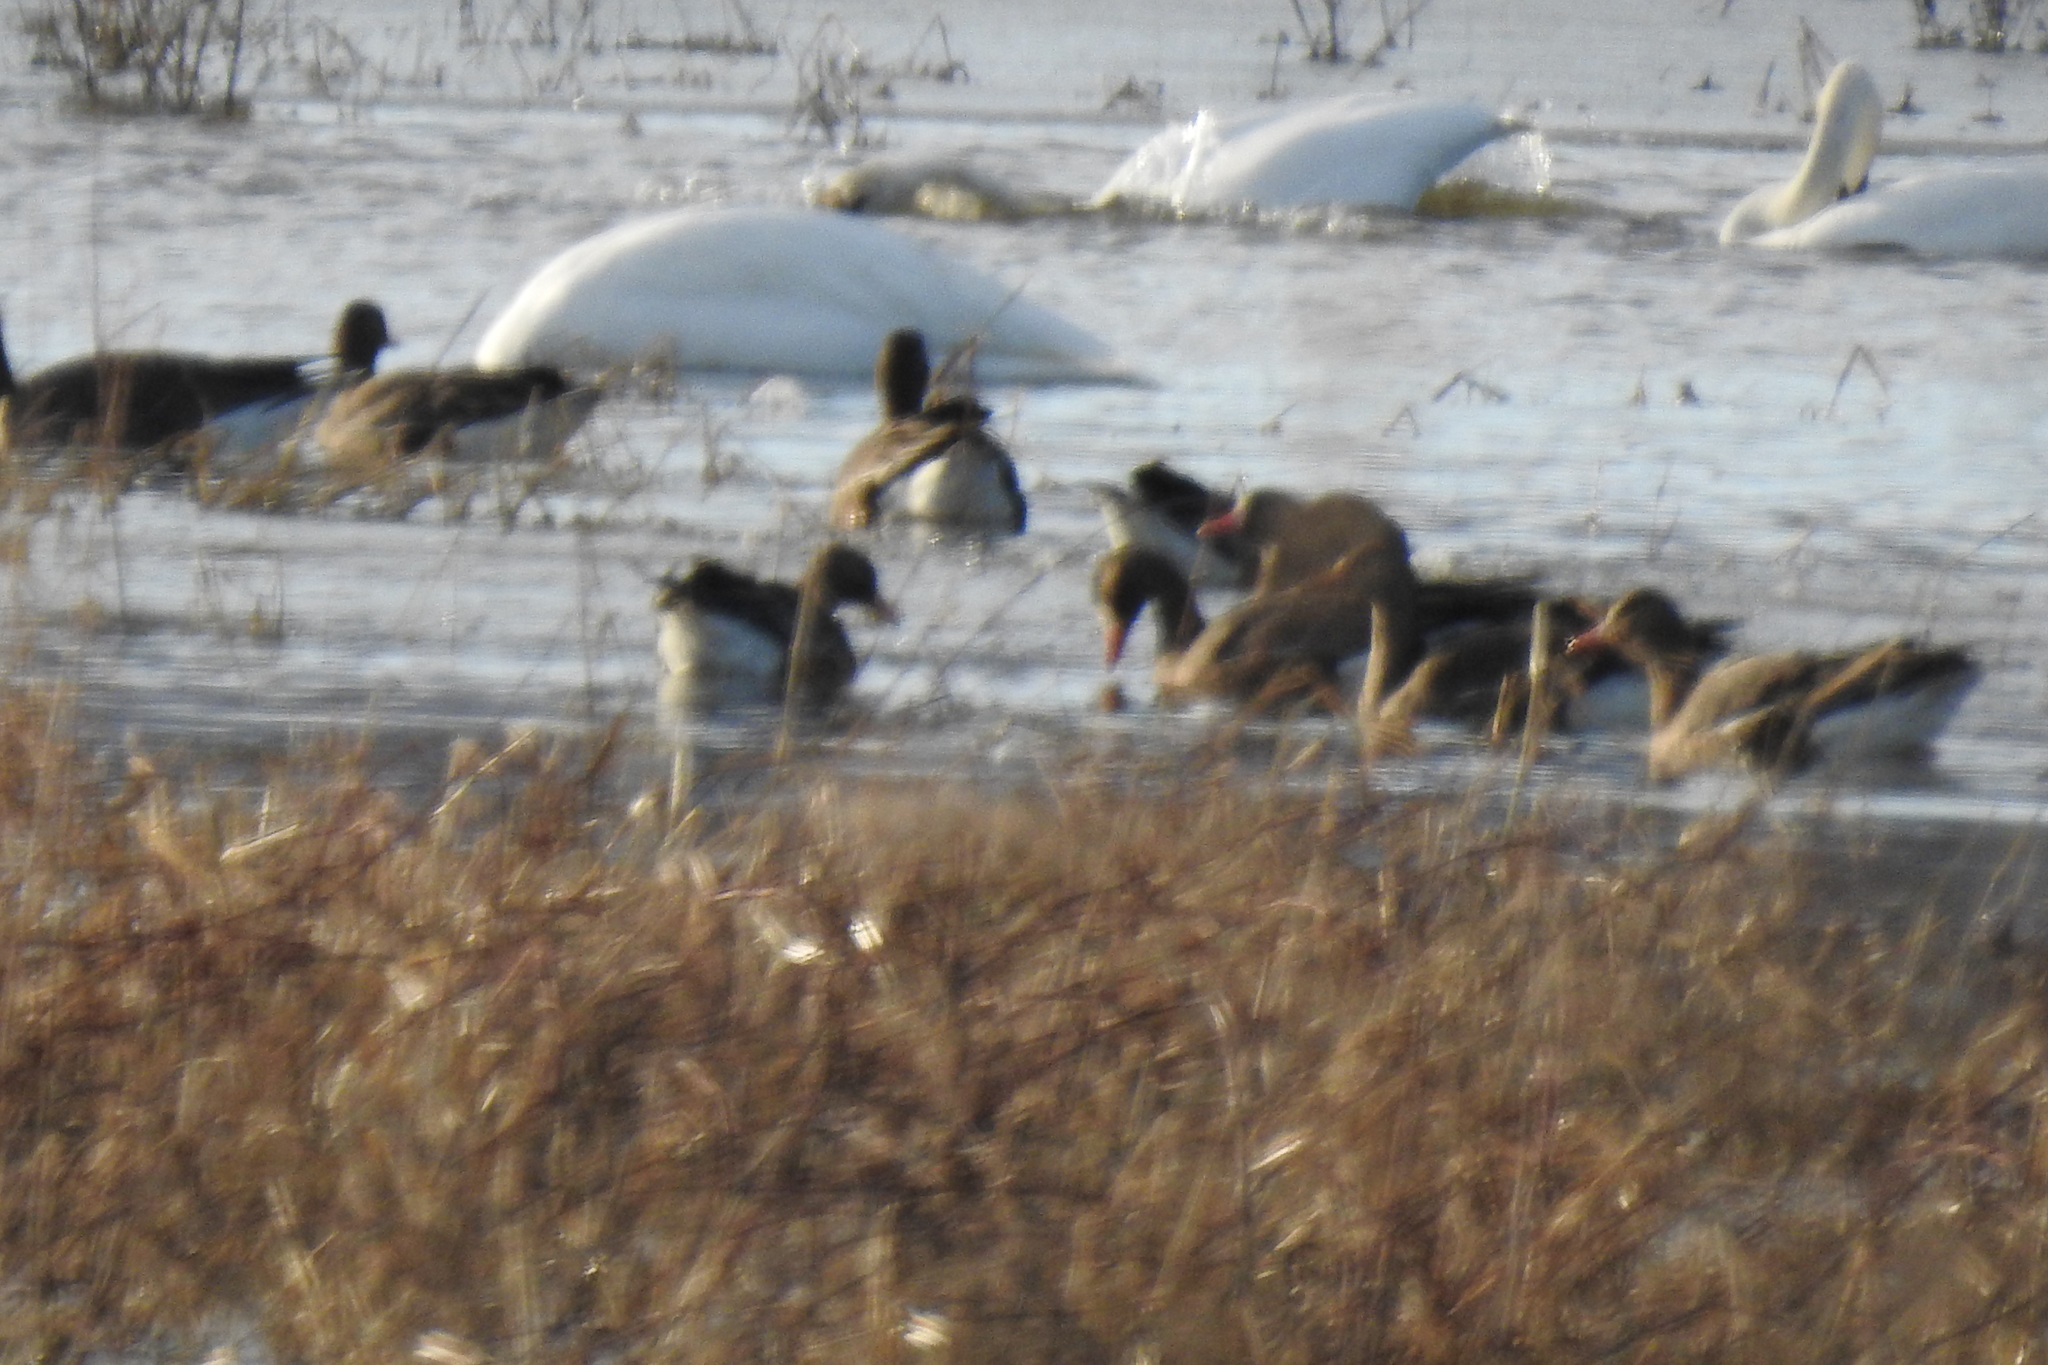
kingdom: Animalia
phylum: Chordata
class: Aves
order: Anseriformes
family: Anatidae
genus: Anser
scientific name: Anser albifrons
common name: Greater white-fronted goose
